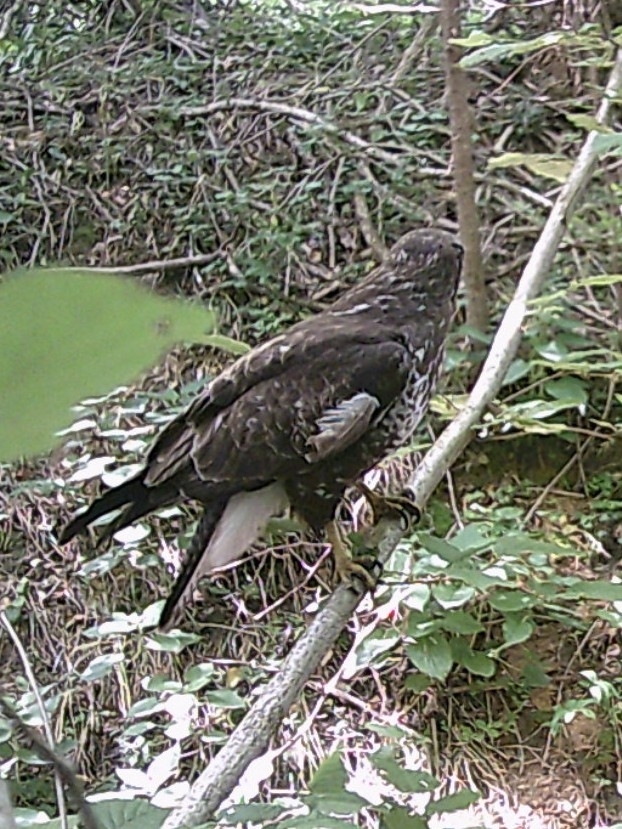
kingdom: Animalia
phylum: Chordata
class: Aves
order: Accipitriformes
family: Accipitridae
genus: Buteo
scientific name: Buteo buteo
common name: Common buzzard
